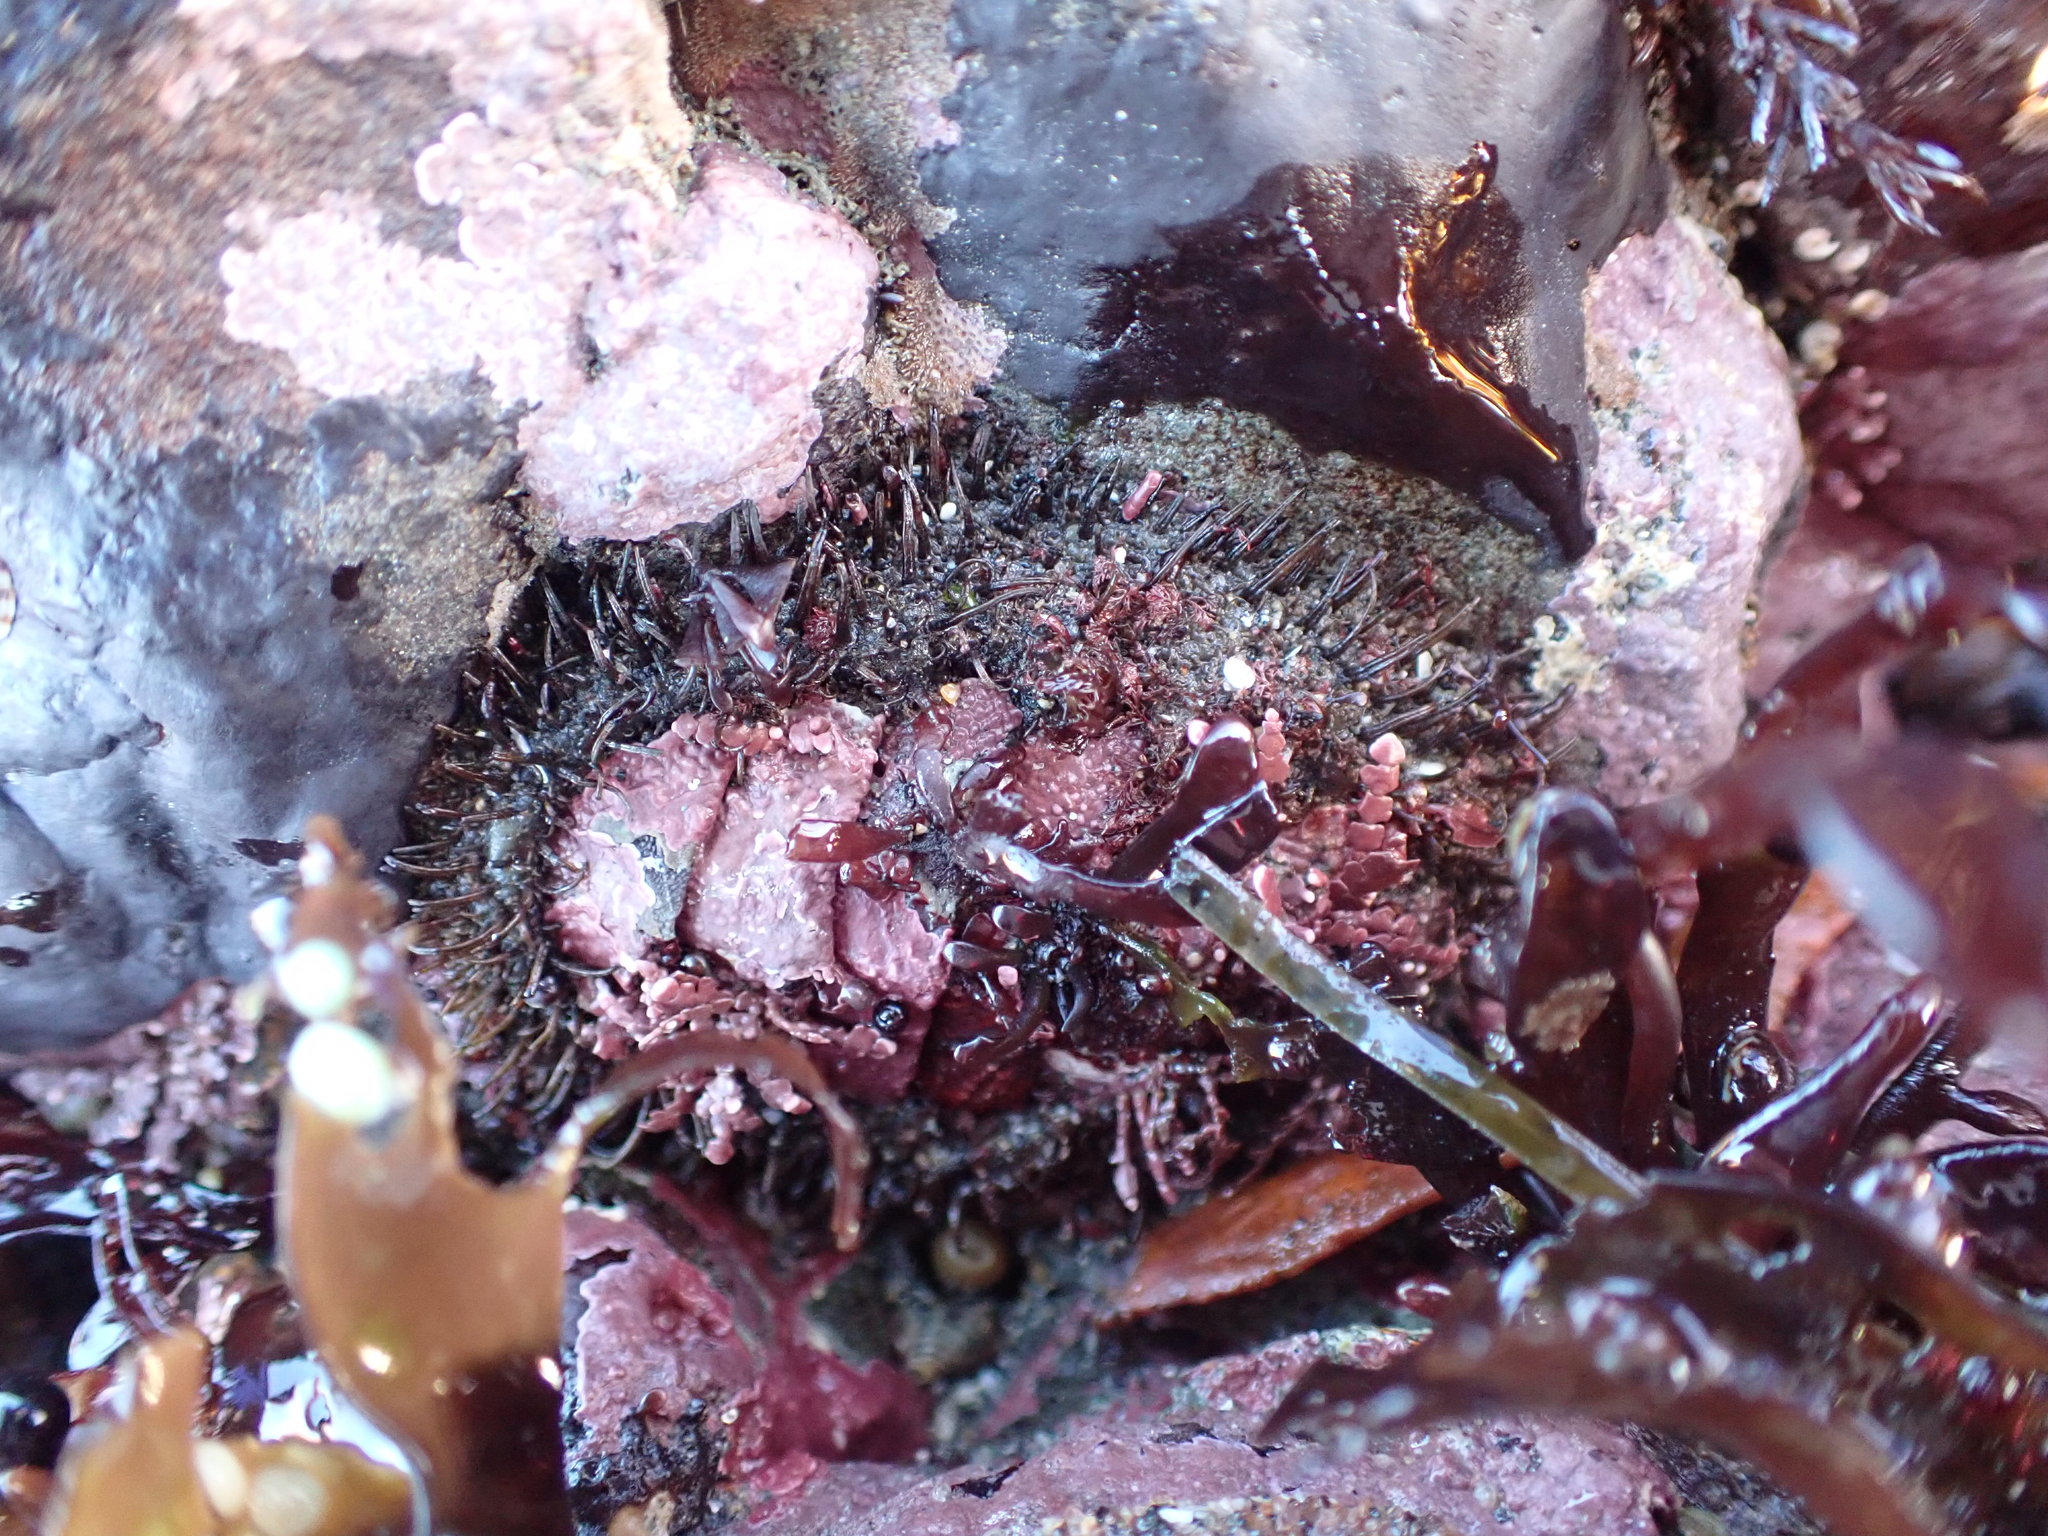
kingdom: Animalia
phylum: Mollusca
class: Polyplacophora
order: Chitonida
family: Mopaliidae
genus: Mopalia
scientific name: Mopalia muscosa
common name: Mossy chiton
